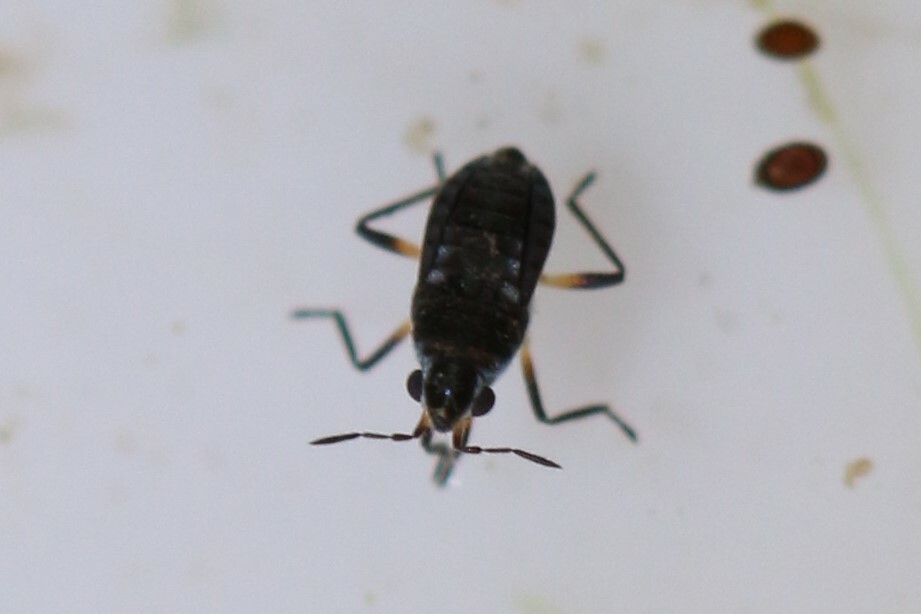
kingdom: Animalia
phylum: Arthropoda
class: Insecta
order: Hemiptera
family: Veliidae
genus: Microvelia
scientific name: Microvelia reticulata
